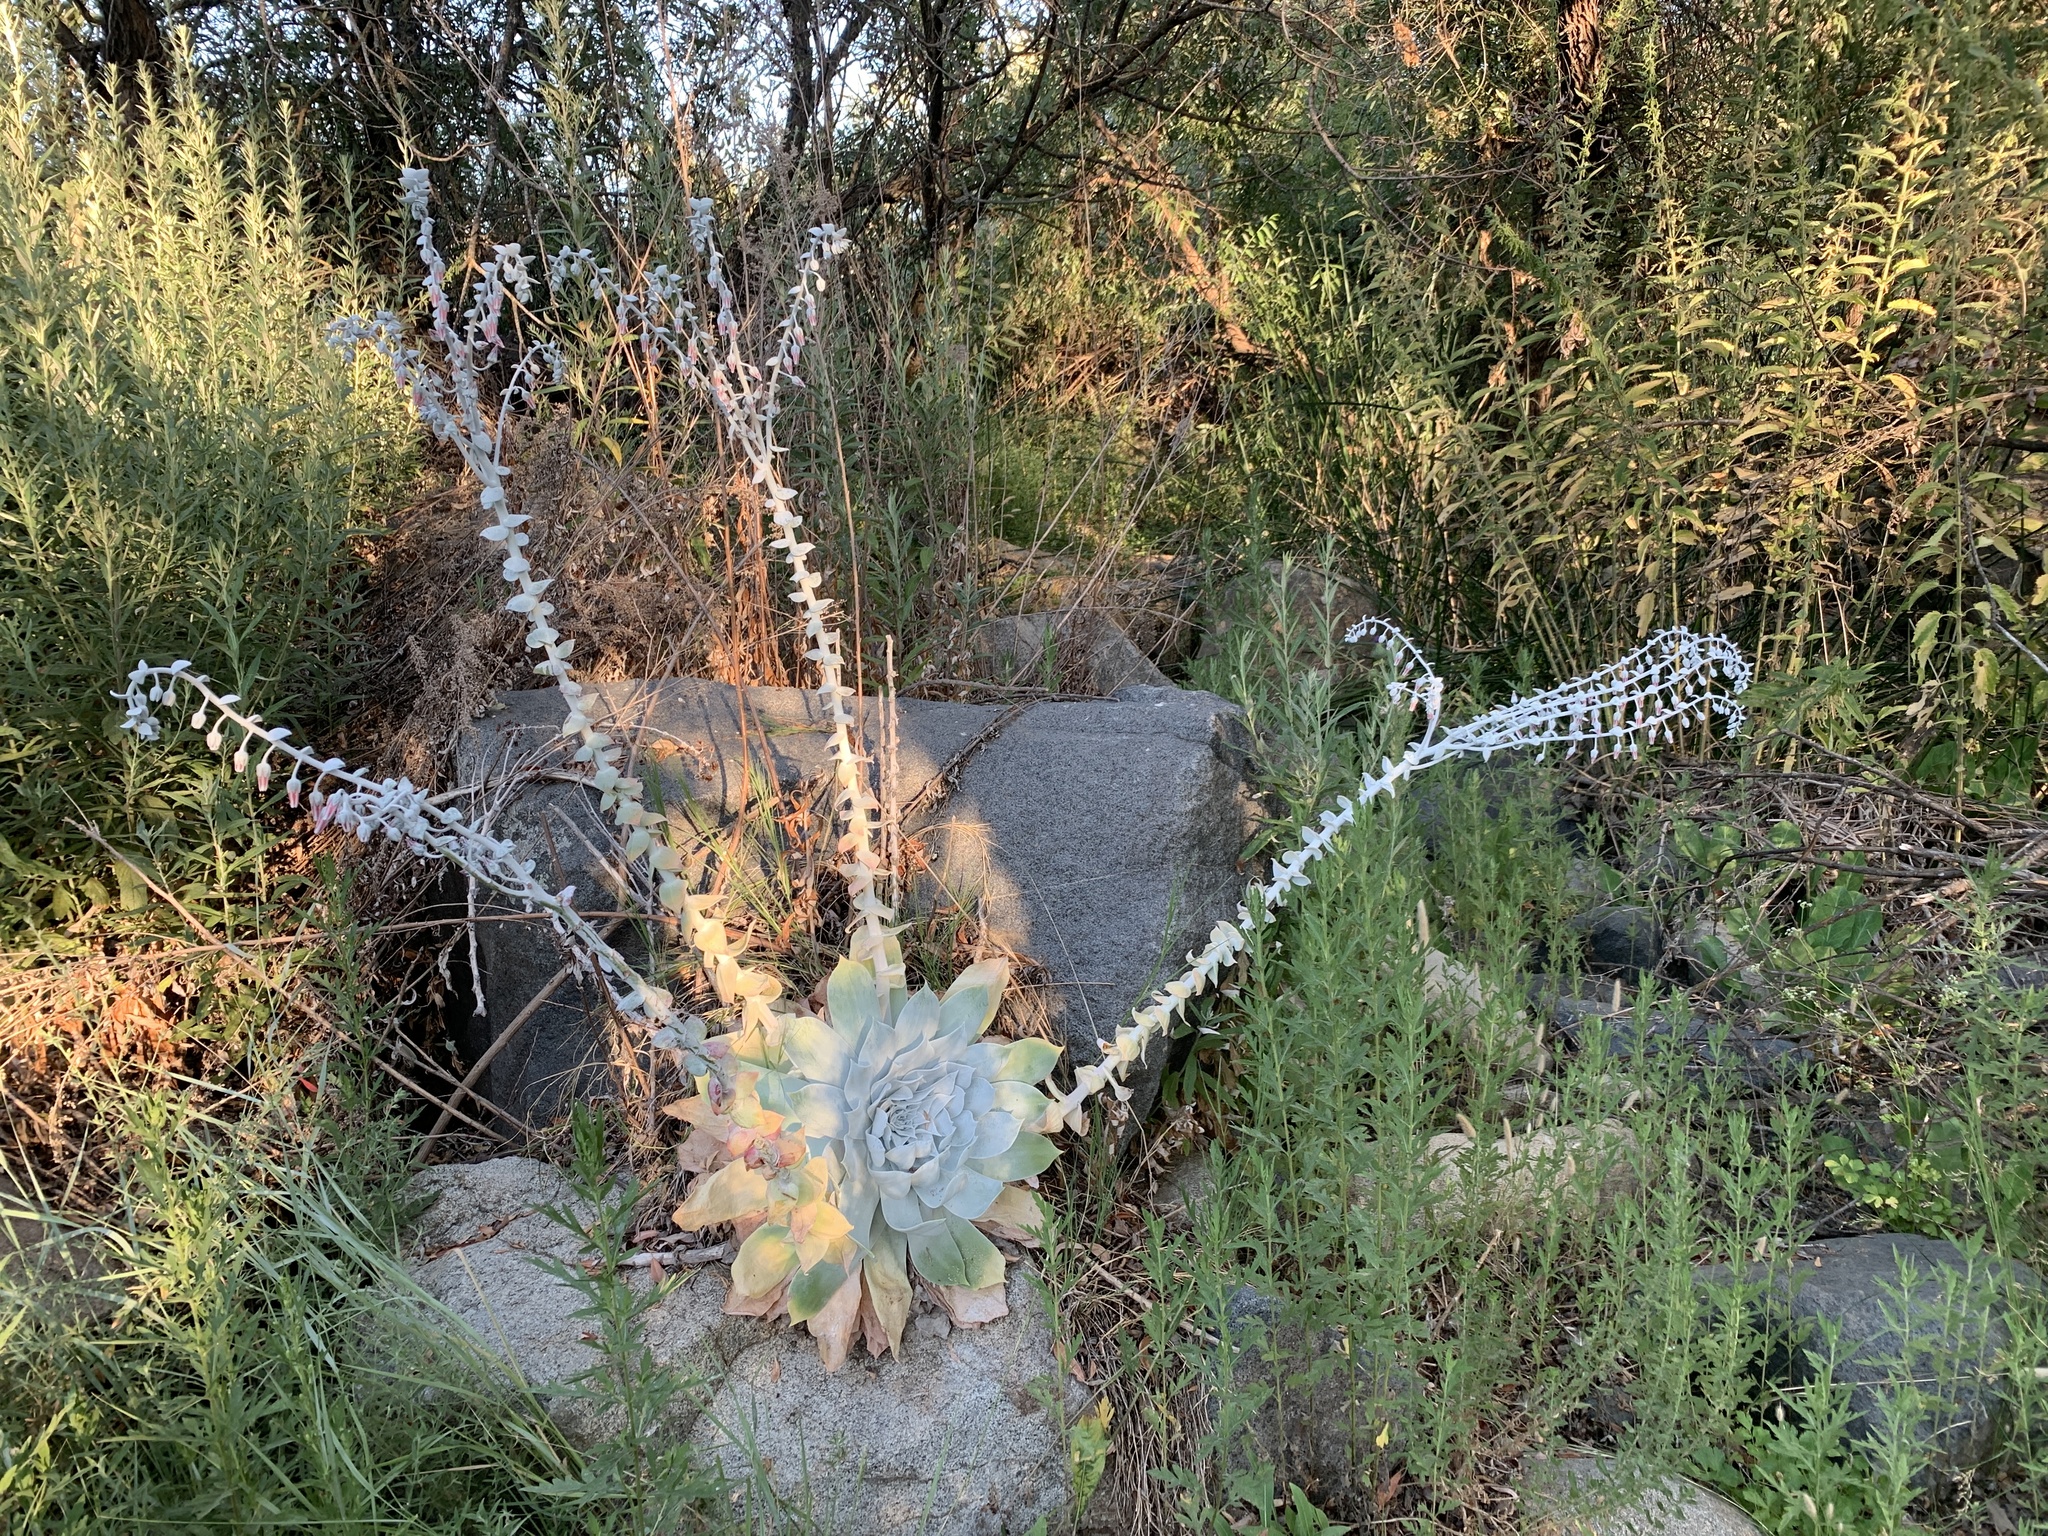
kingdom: Plantae
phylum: Tracheophyta
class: Magnoliopsida
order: Saxifragales
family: Crassulaceae
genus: Dudleya
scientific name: Dudleya pulverulenta
